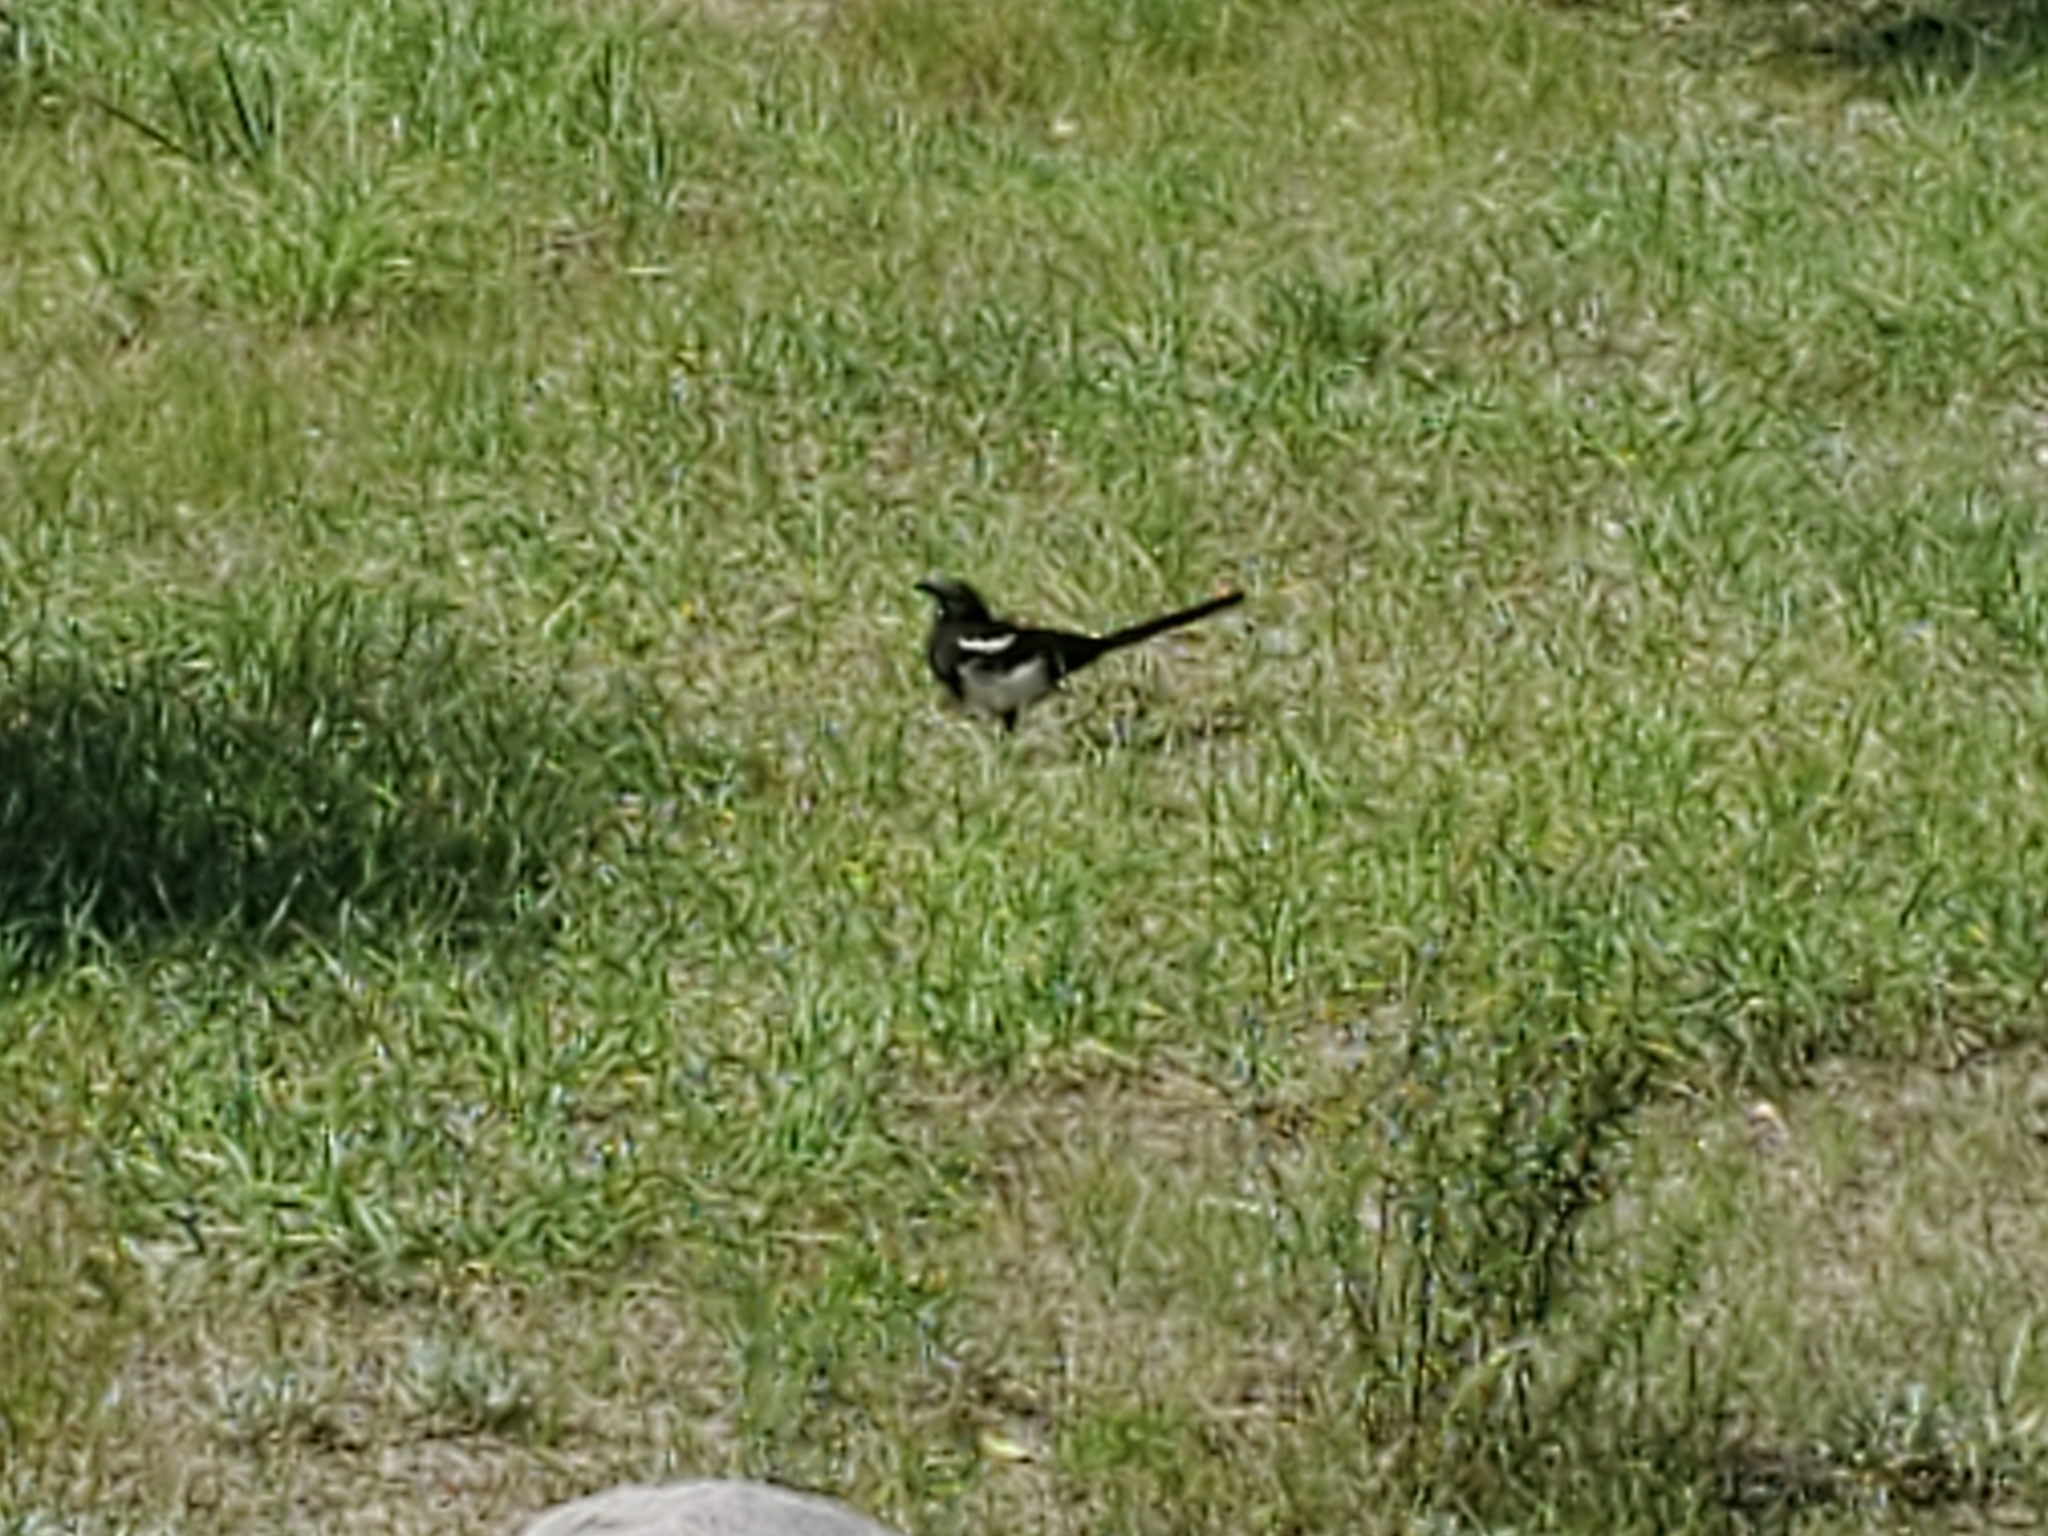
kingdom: Animalia
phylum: Chordata
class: Aves
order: Passeriformes
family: Corvidae
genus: Pica
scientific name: Pica hudsonia
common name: Black-billed magpie
